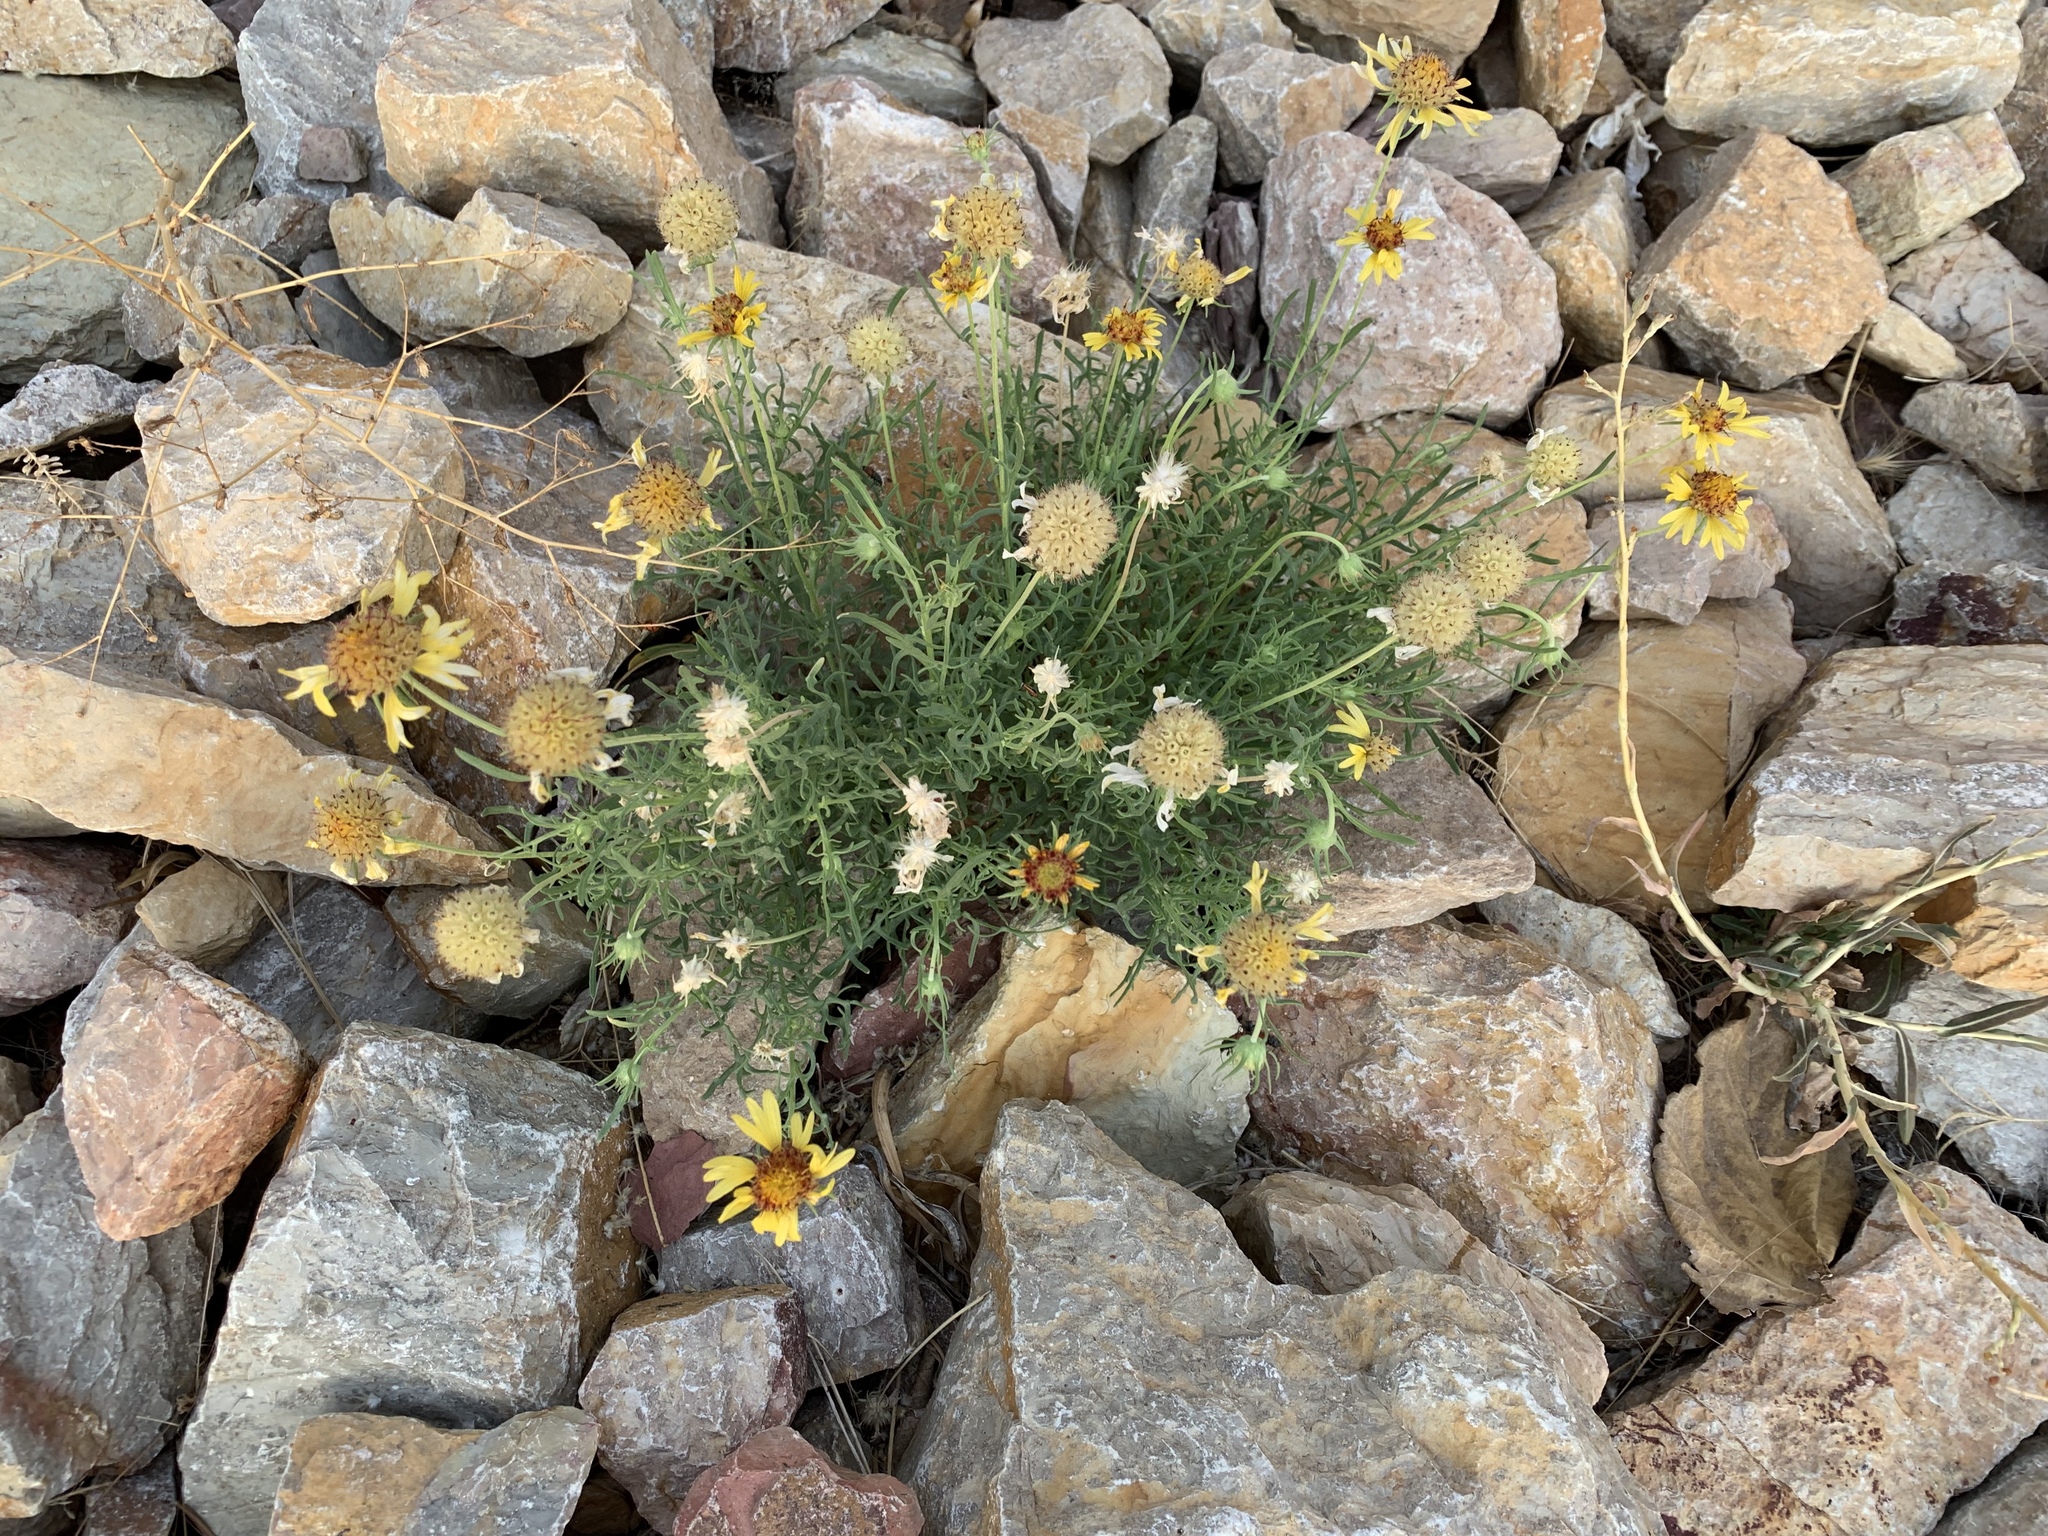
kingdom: Plantae
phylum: Tracheophyta
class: Magnoliopsida
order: Asterales
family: Asteraceae
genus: Gaillardia
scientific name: Gaillardia pinnatifida
